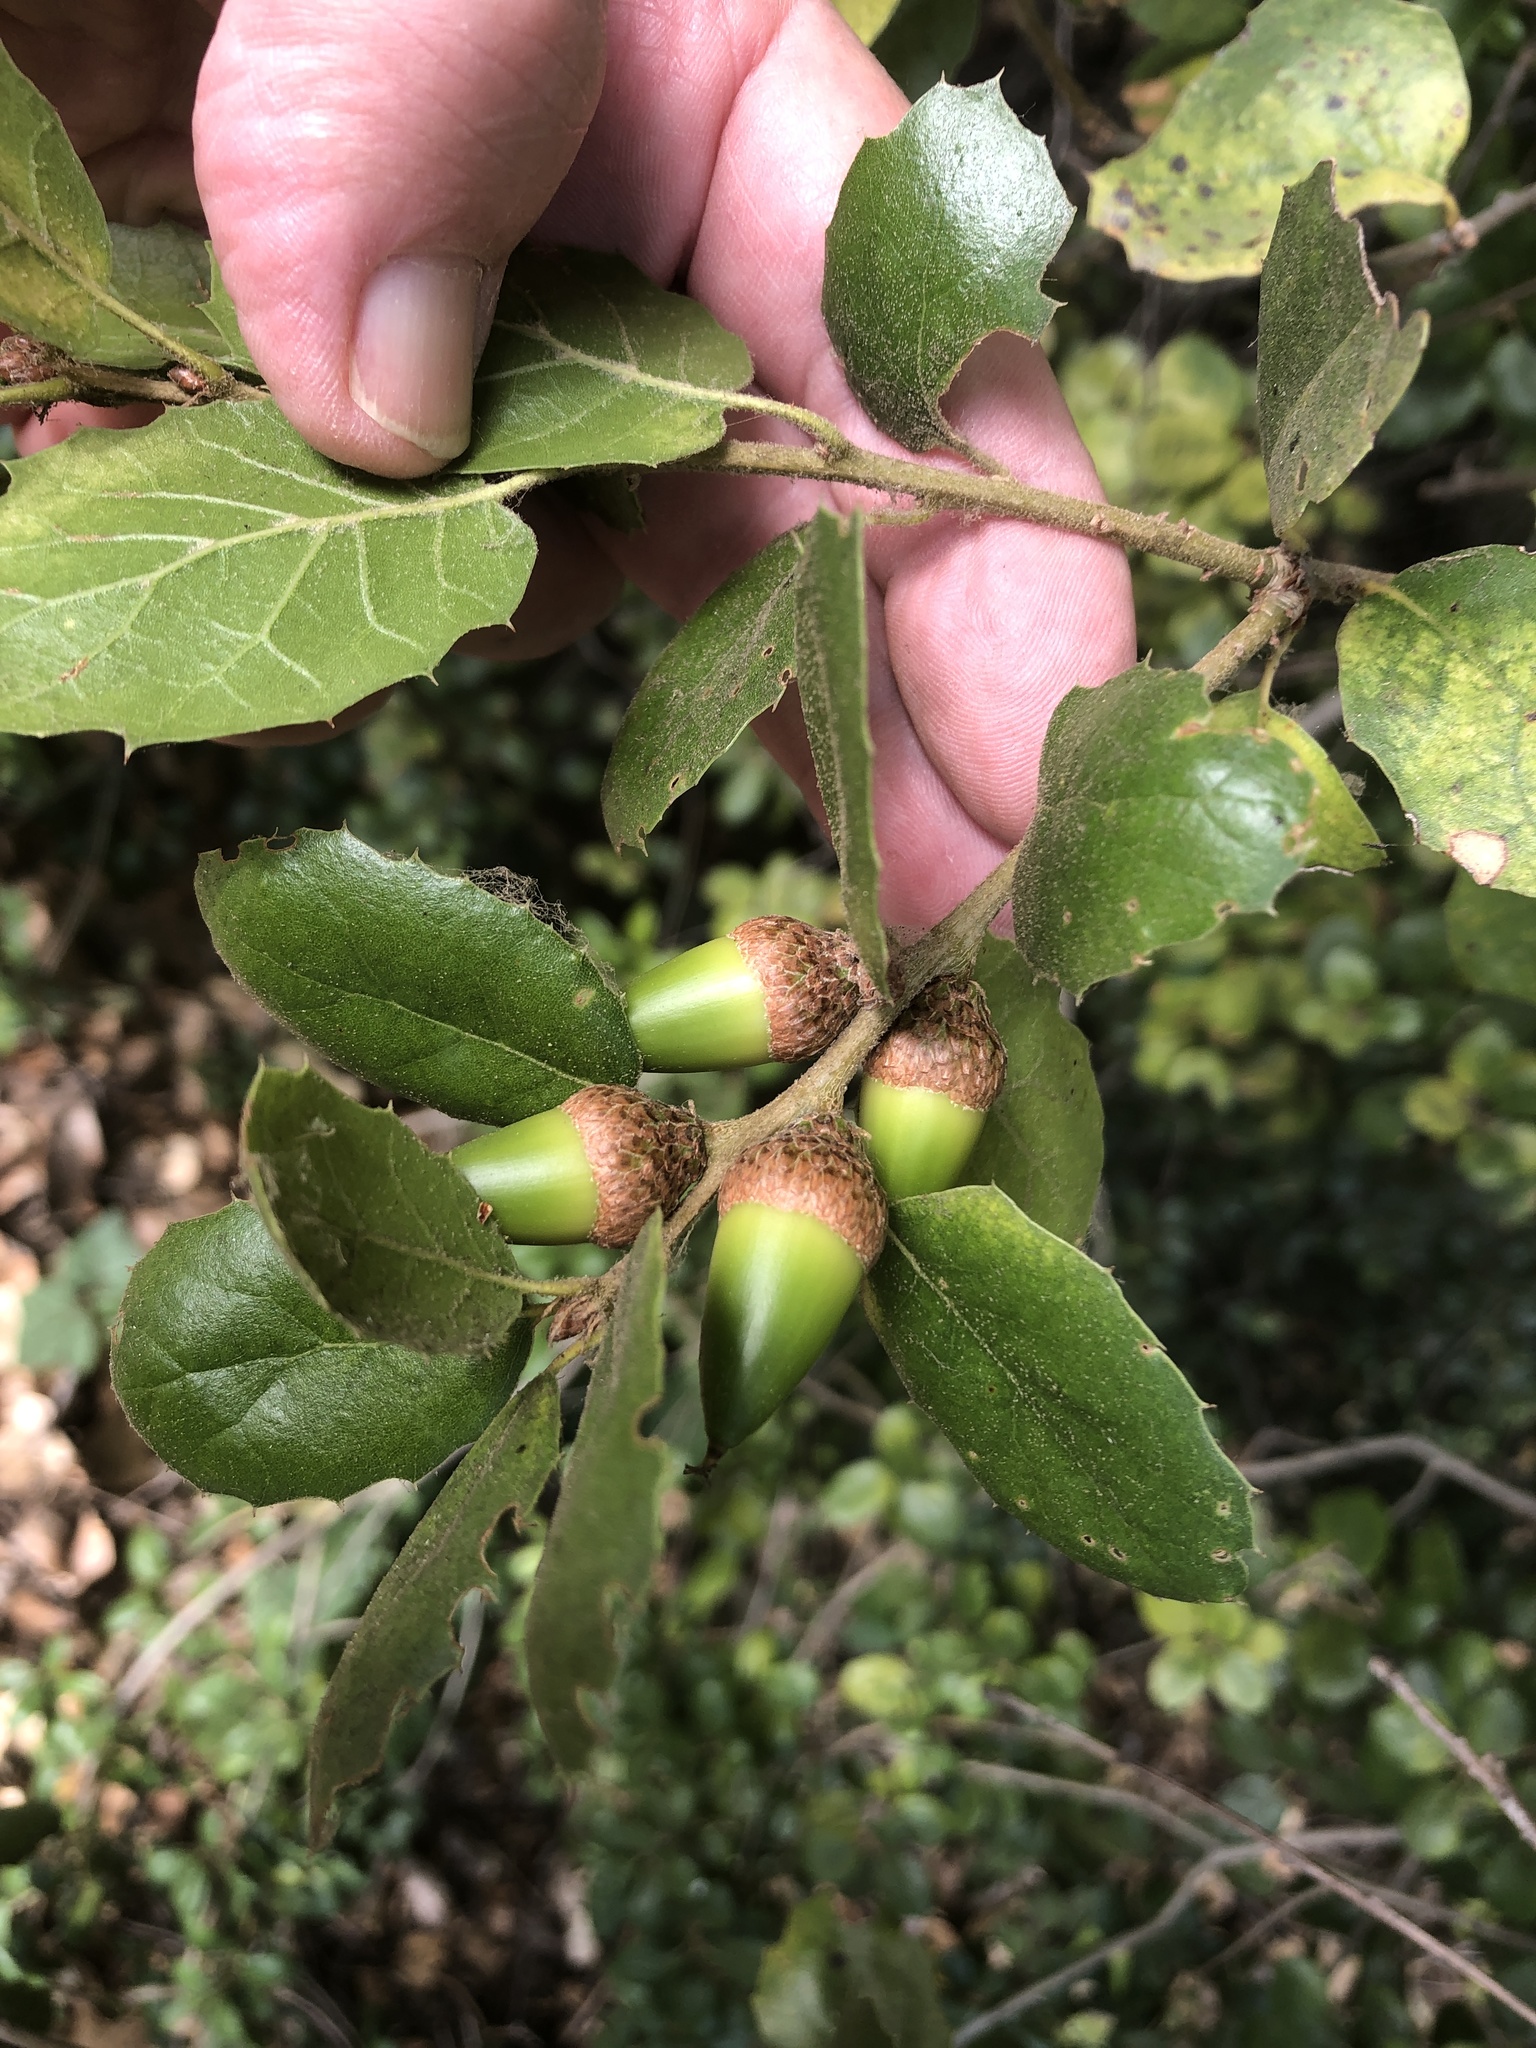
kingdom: Plantae
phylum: Tracheophyta
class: Magnoliopsida
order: Fagales
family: Fagaceae
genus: Quercus
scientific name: Quercus agrifolia
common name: California live oak
